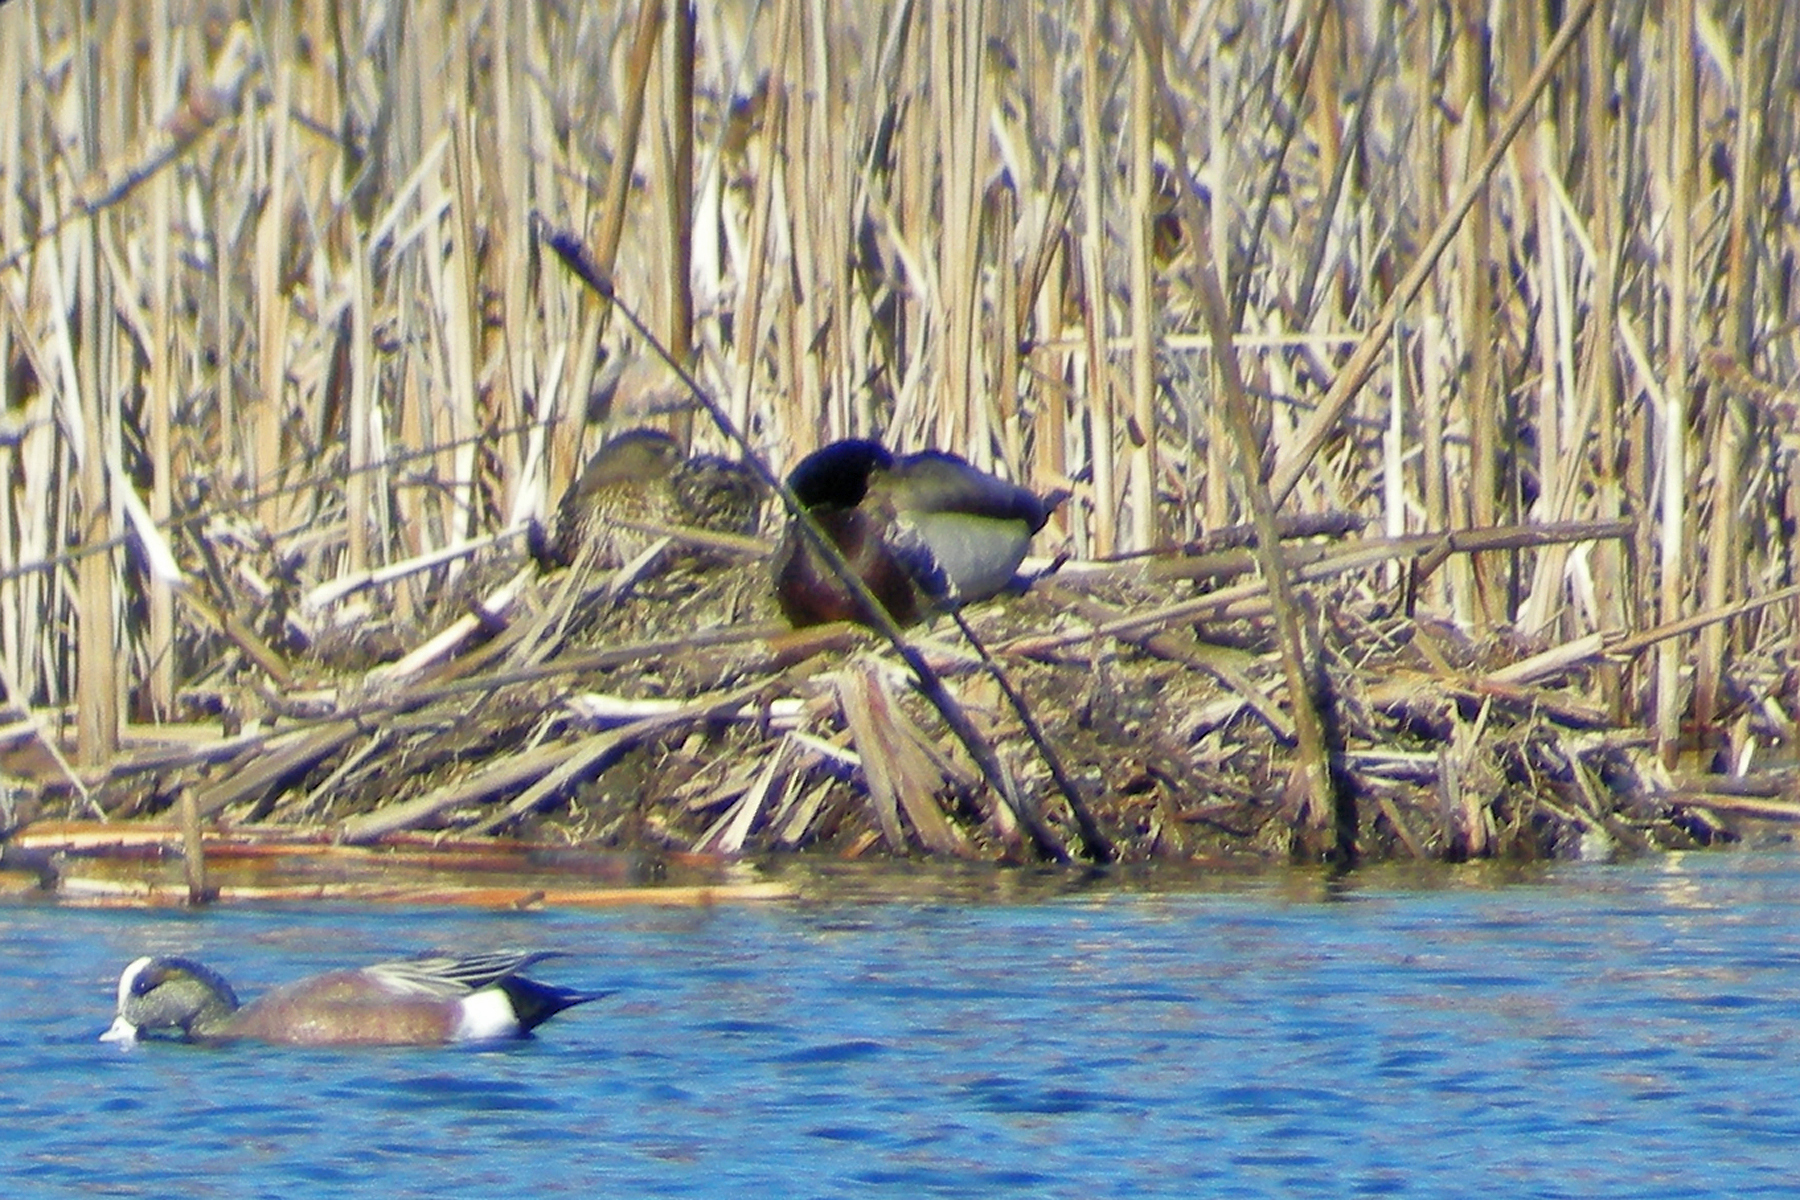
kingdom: Animalia
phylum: Chordata
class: Aves
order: Anseriformes
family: Anatidae
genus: Anas
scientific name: Anas platyrhynchos
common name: Mallard
